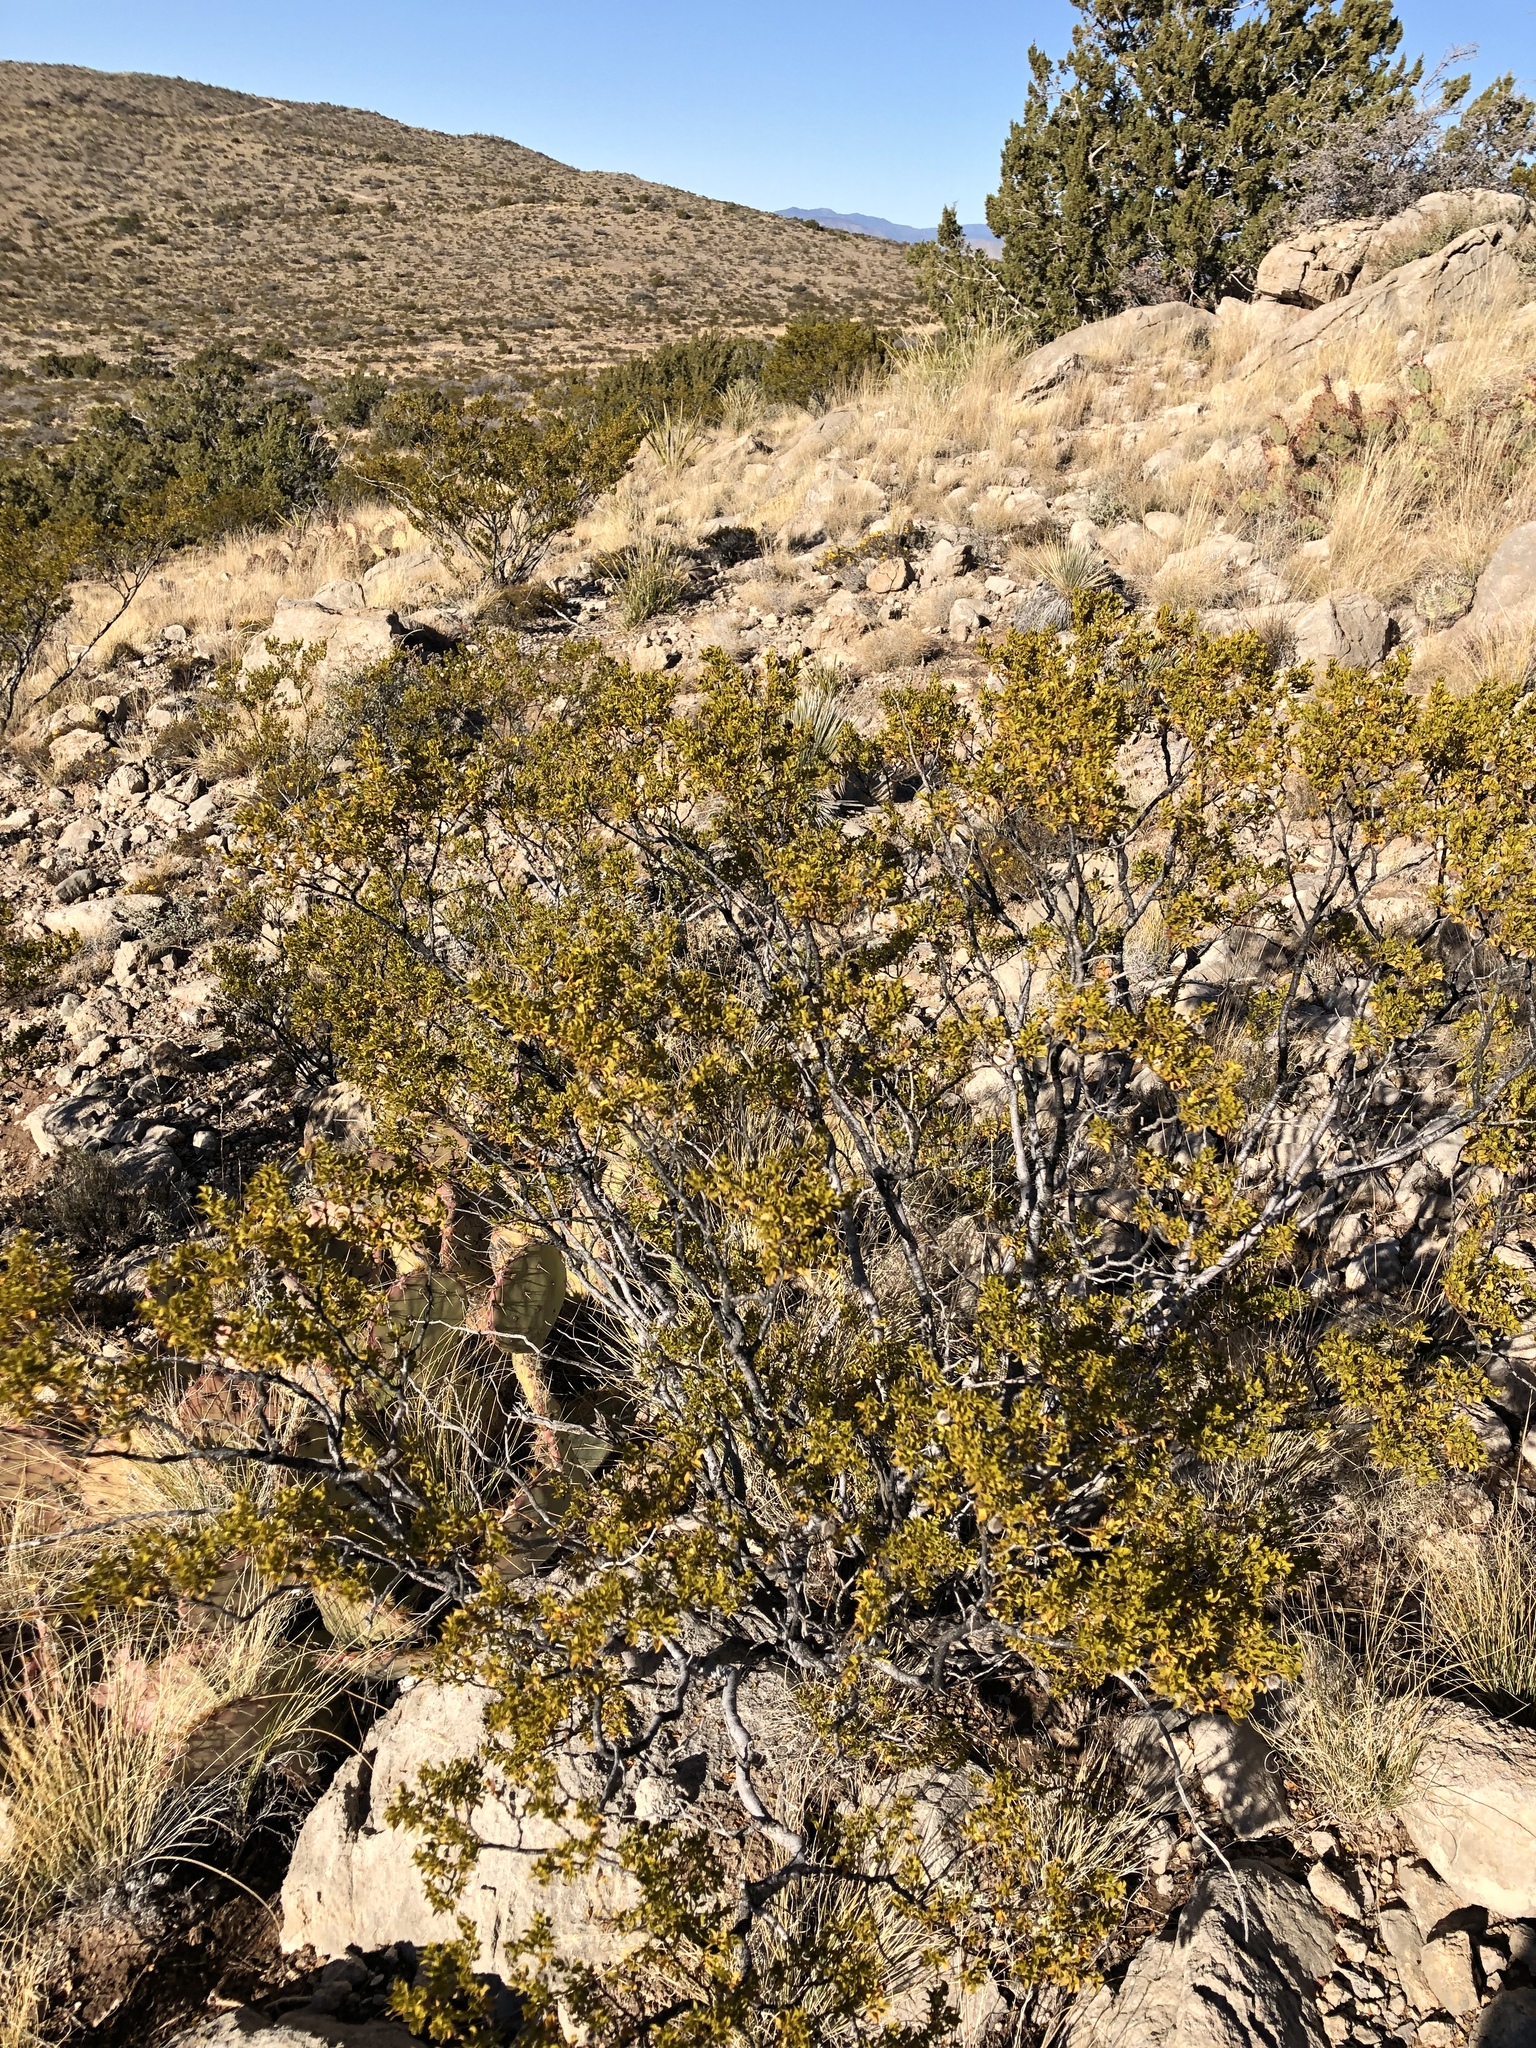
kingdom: Plantae
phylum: Tracheophyta
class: Magnoliopsida
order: Zygophyllales
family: Zygophyllaceae
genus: Larrea
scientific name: Larrea tridentata
